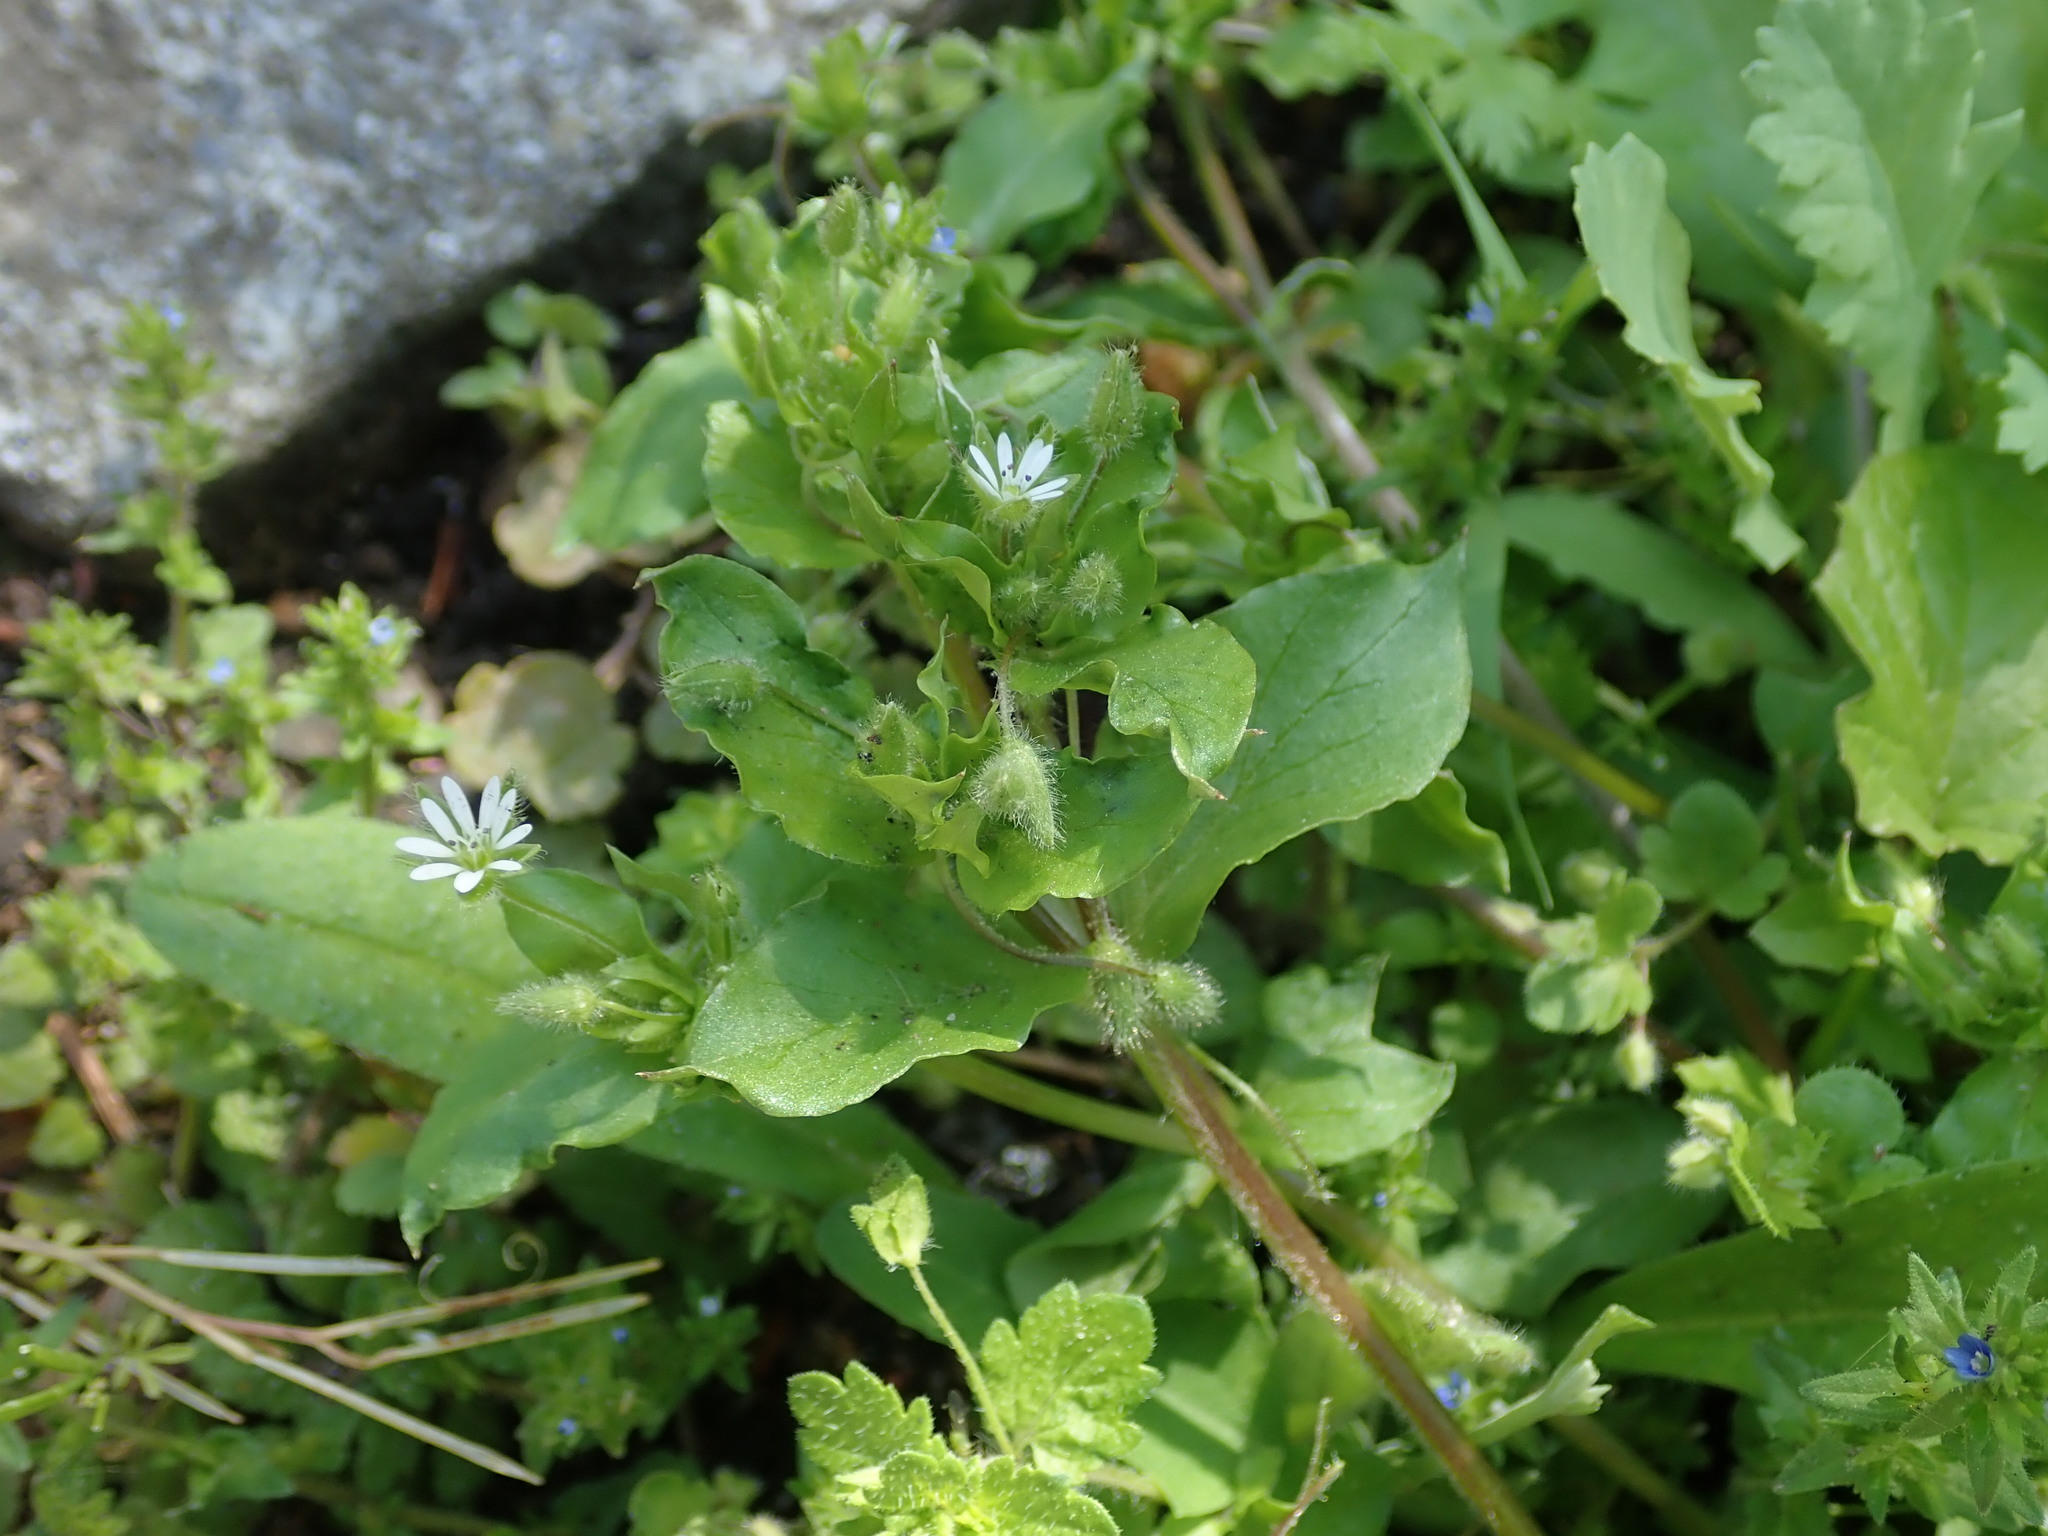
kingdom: Plantae
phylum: Tracheophyta
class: Magnoliopsida
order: Caryophyllales
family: Caryophyllaceae
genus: Stellaria
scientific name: Stellaria media
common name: Common chickweed
